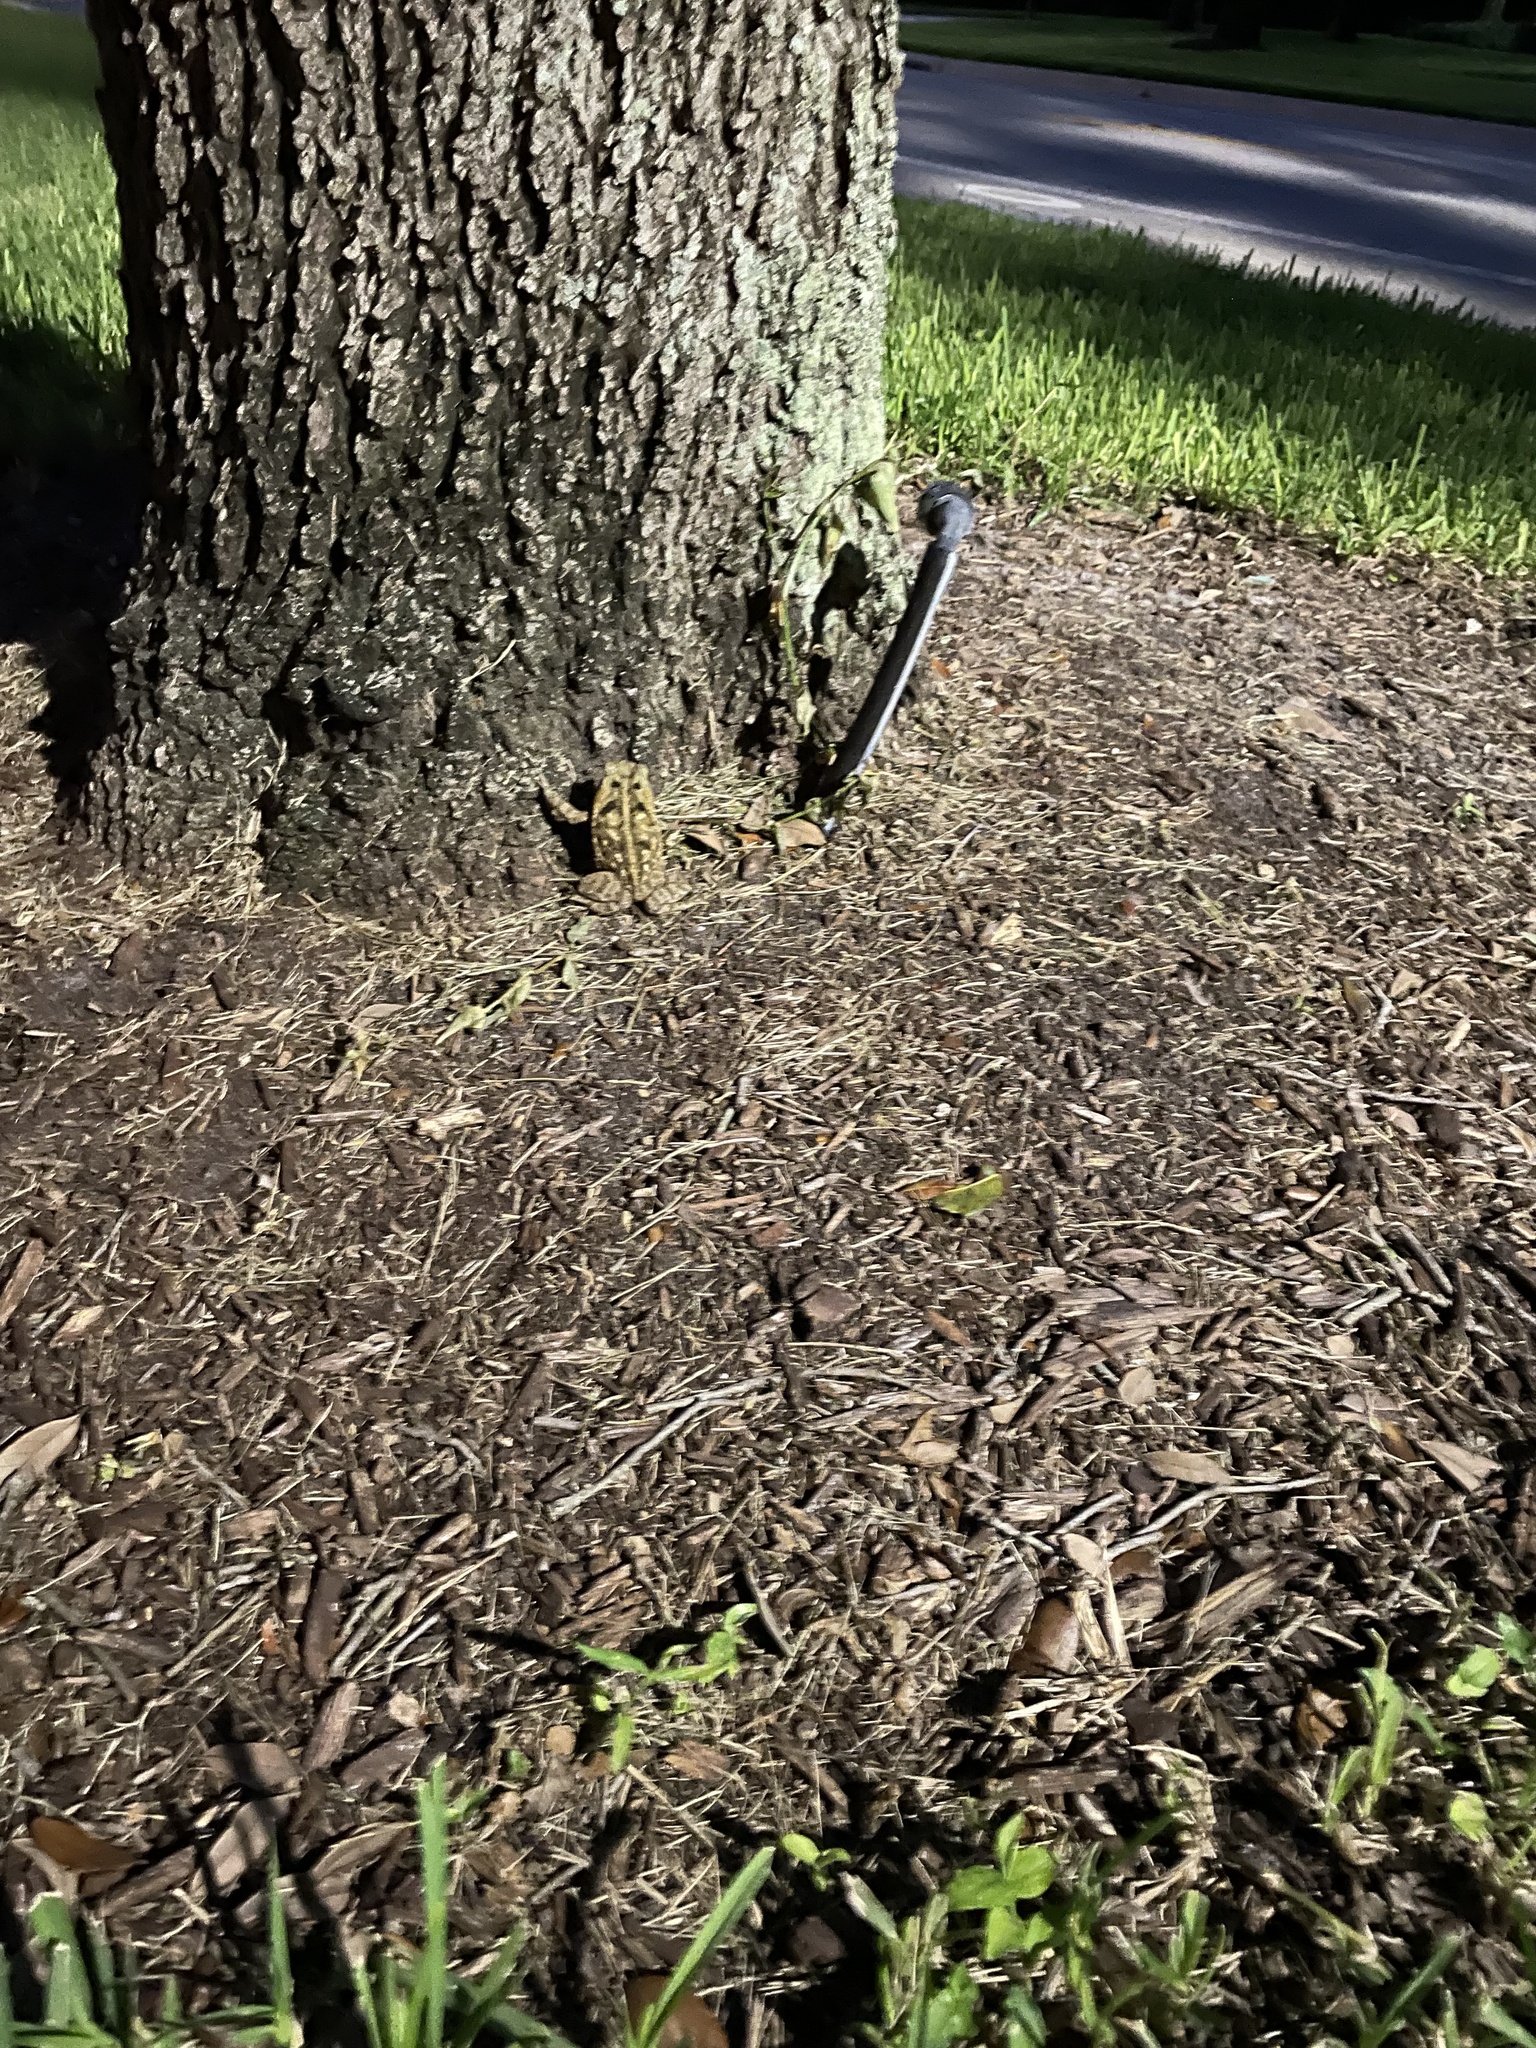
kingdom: Animalia
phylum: Chordata
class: Amphibia
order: Anura
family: Bufonidae
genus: Rhinella
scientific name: Rhinella marina
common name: Cane toad
